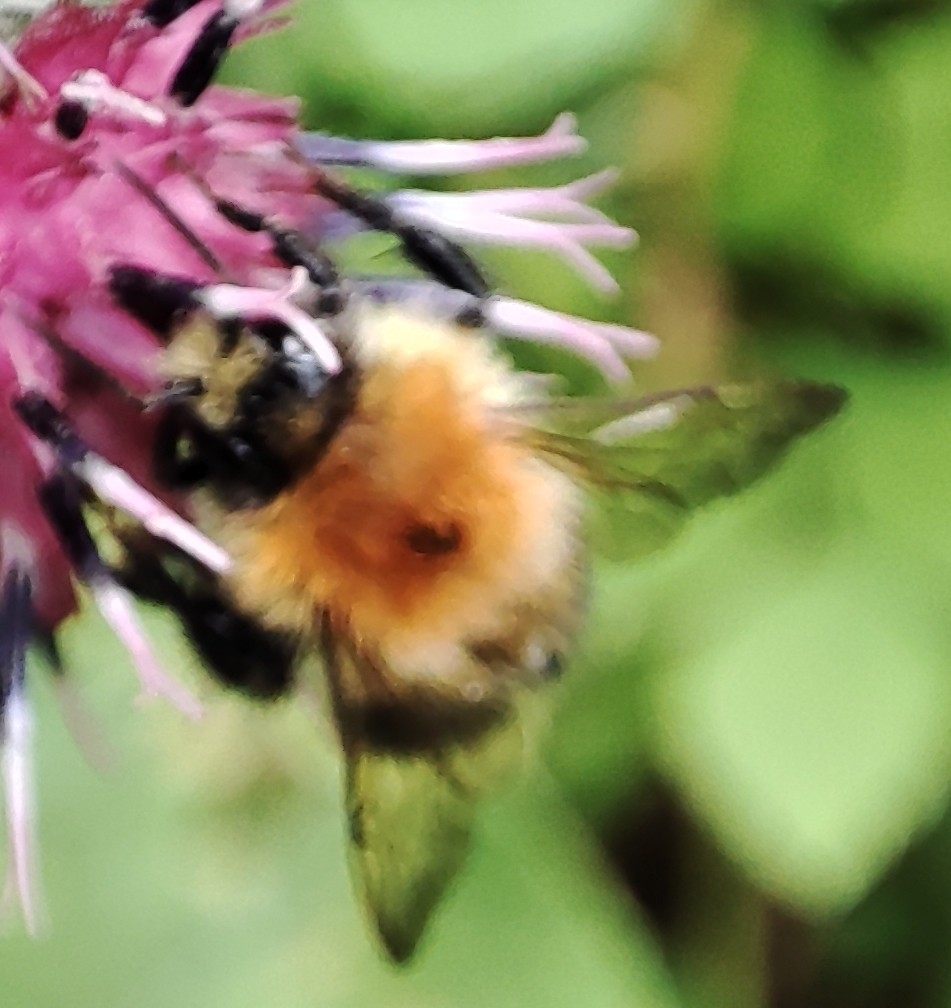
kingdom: Animalia
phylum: Arthropoda
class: Insecta
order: Hymenoptera
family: Apidae
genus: Bombus
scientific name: Bombus pascuorum
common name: Common carder bee
